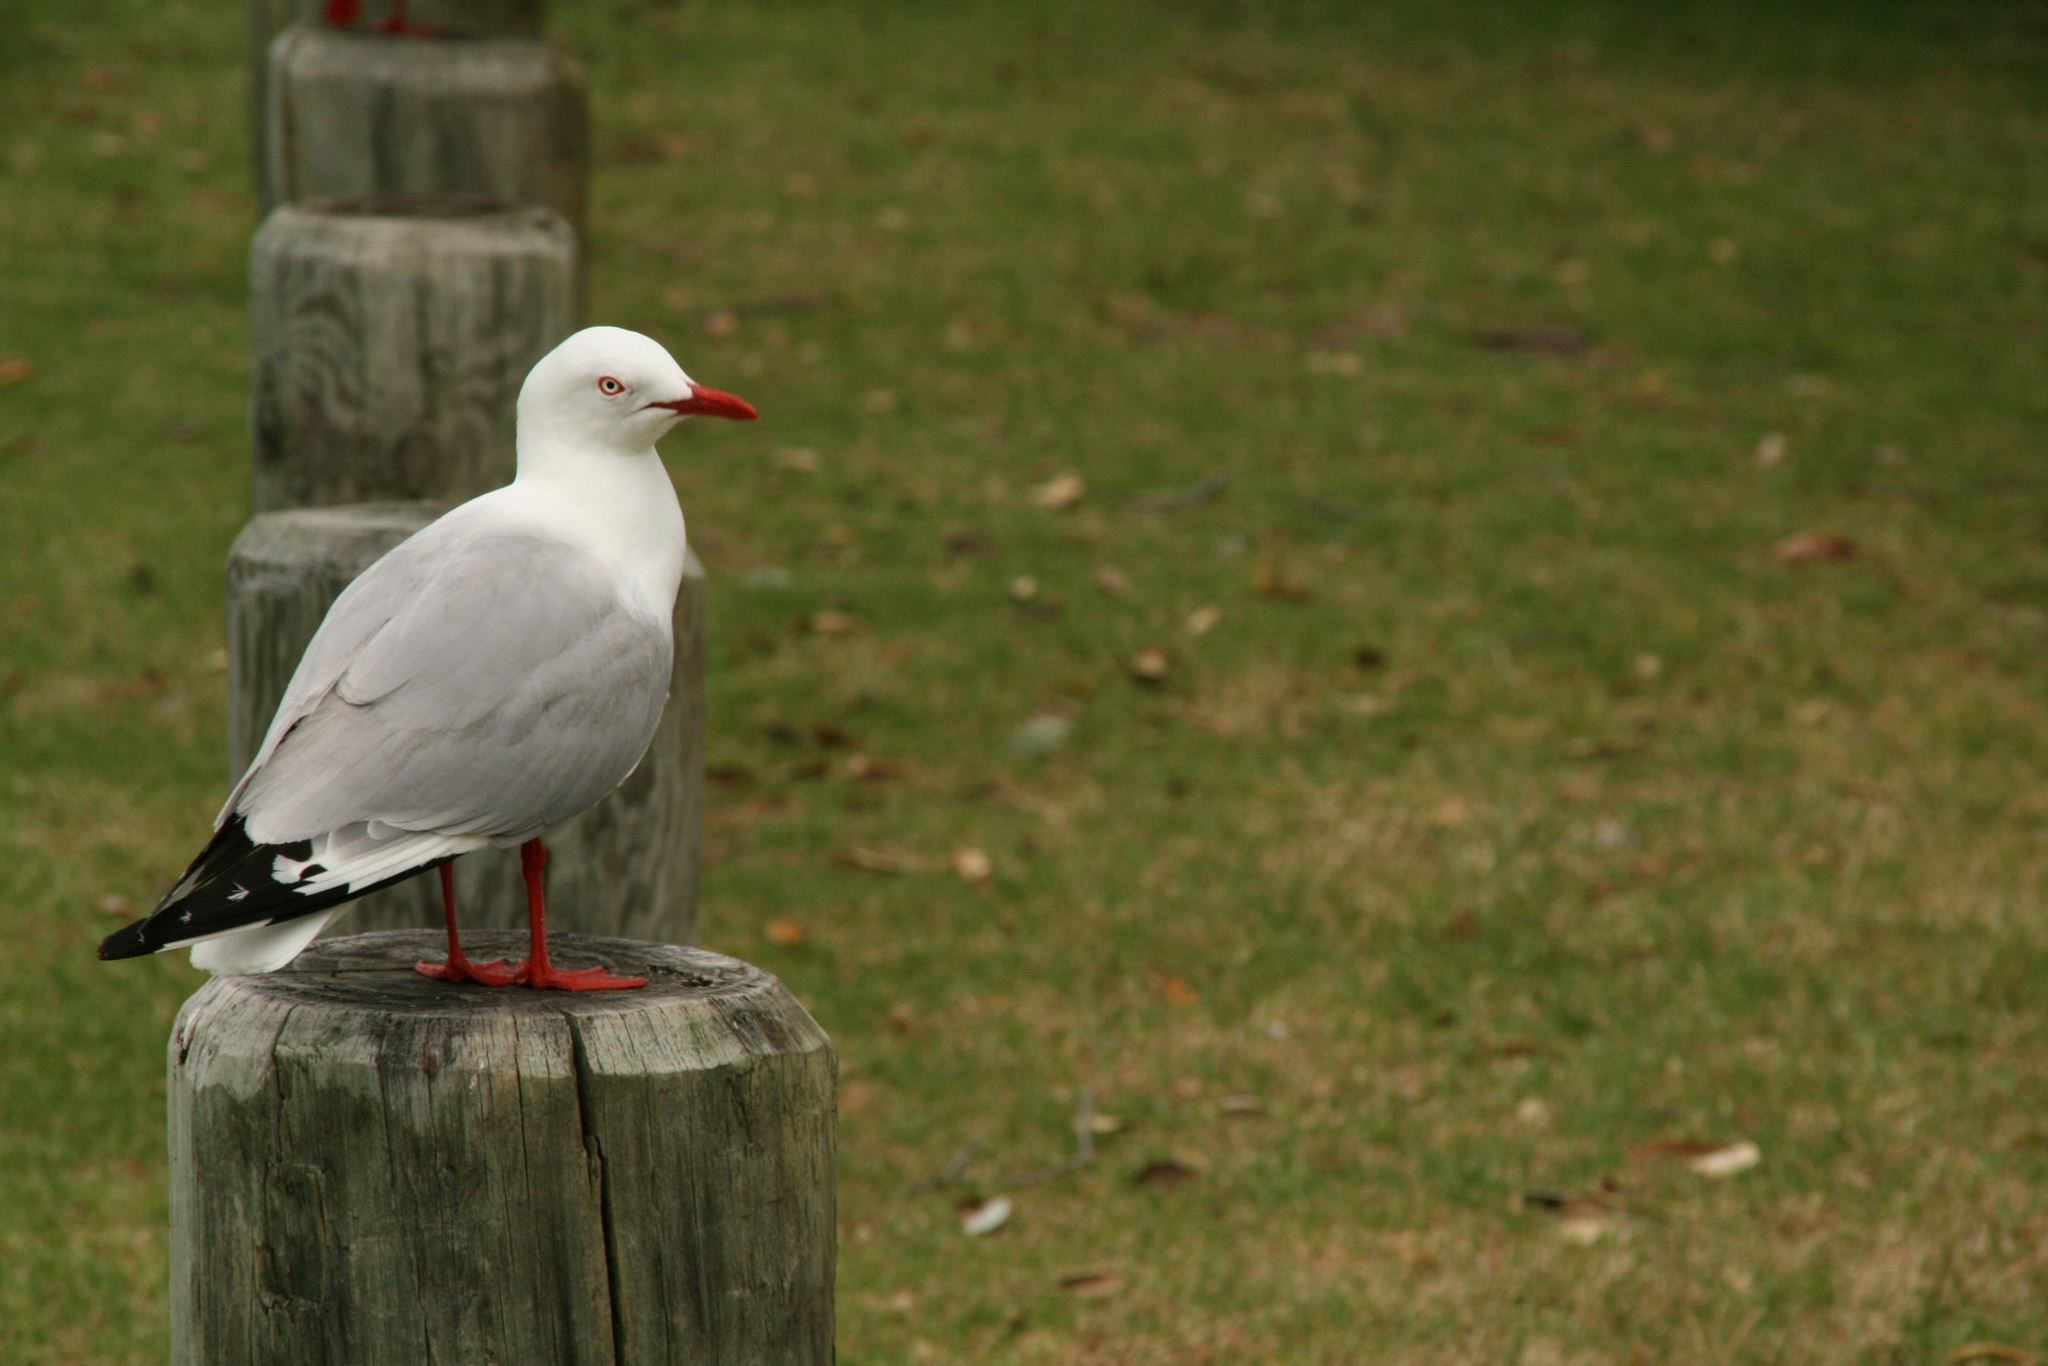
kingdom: Animalia
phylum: Chordata
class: Aves
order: Charadriiformes
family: Laridae
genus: Chroicocephalus
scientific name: Chroicocephalus novaehollandiae
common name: Silver gull
